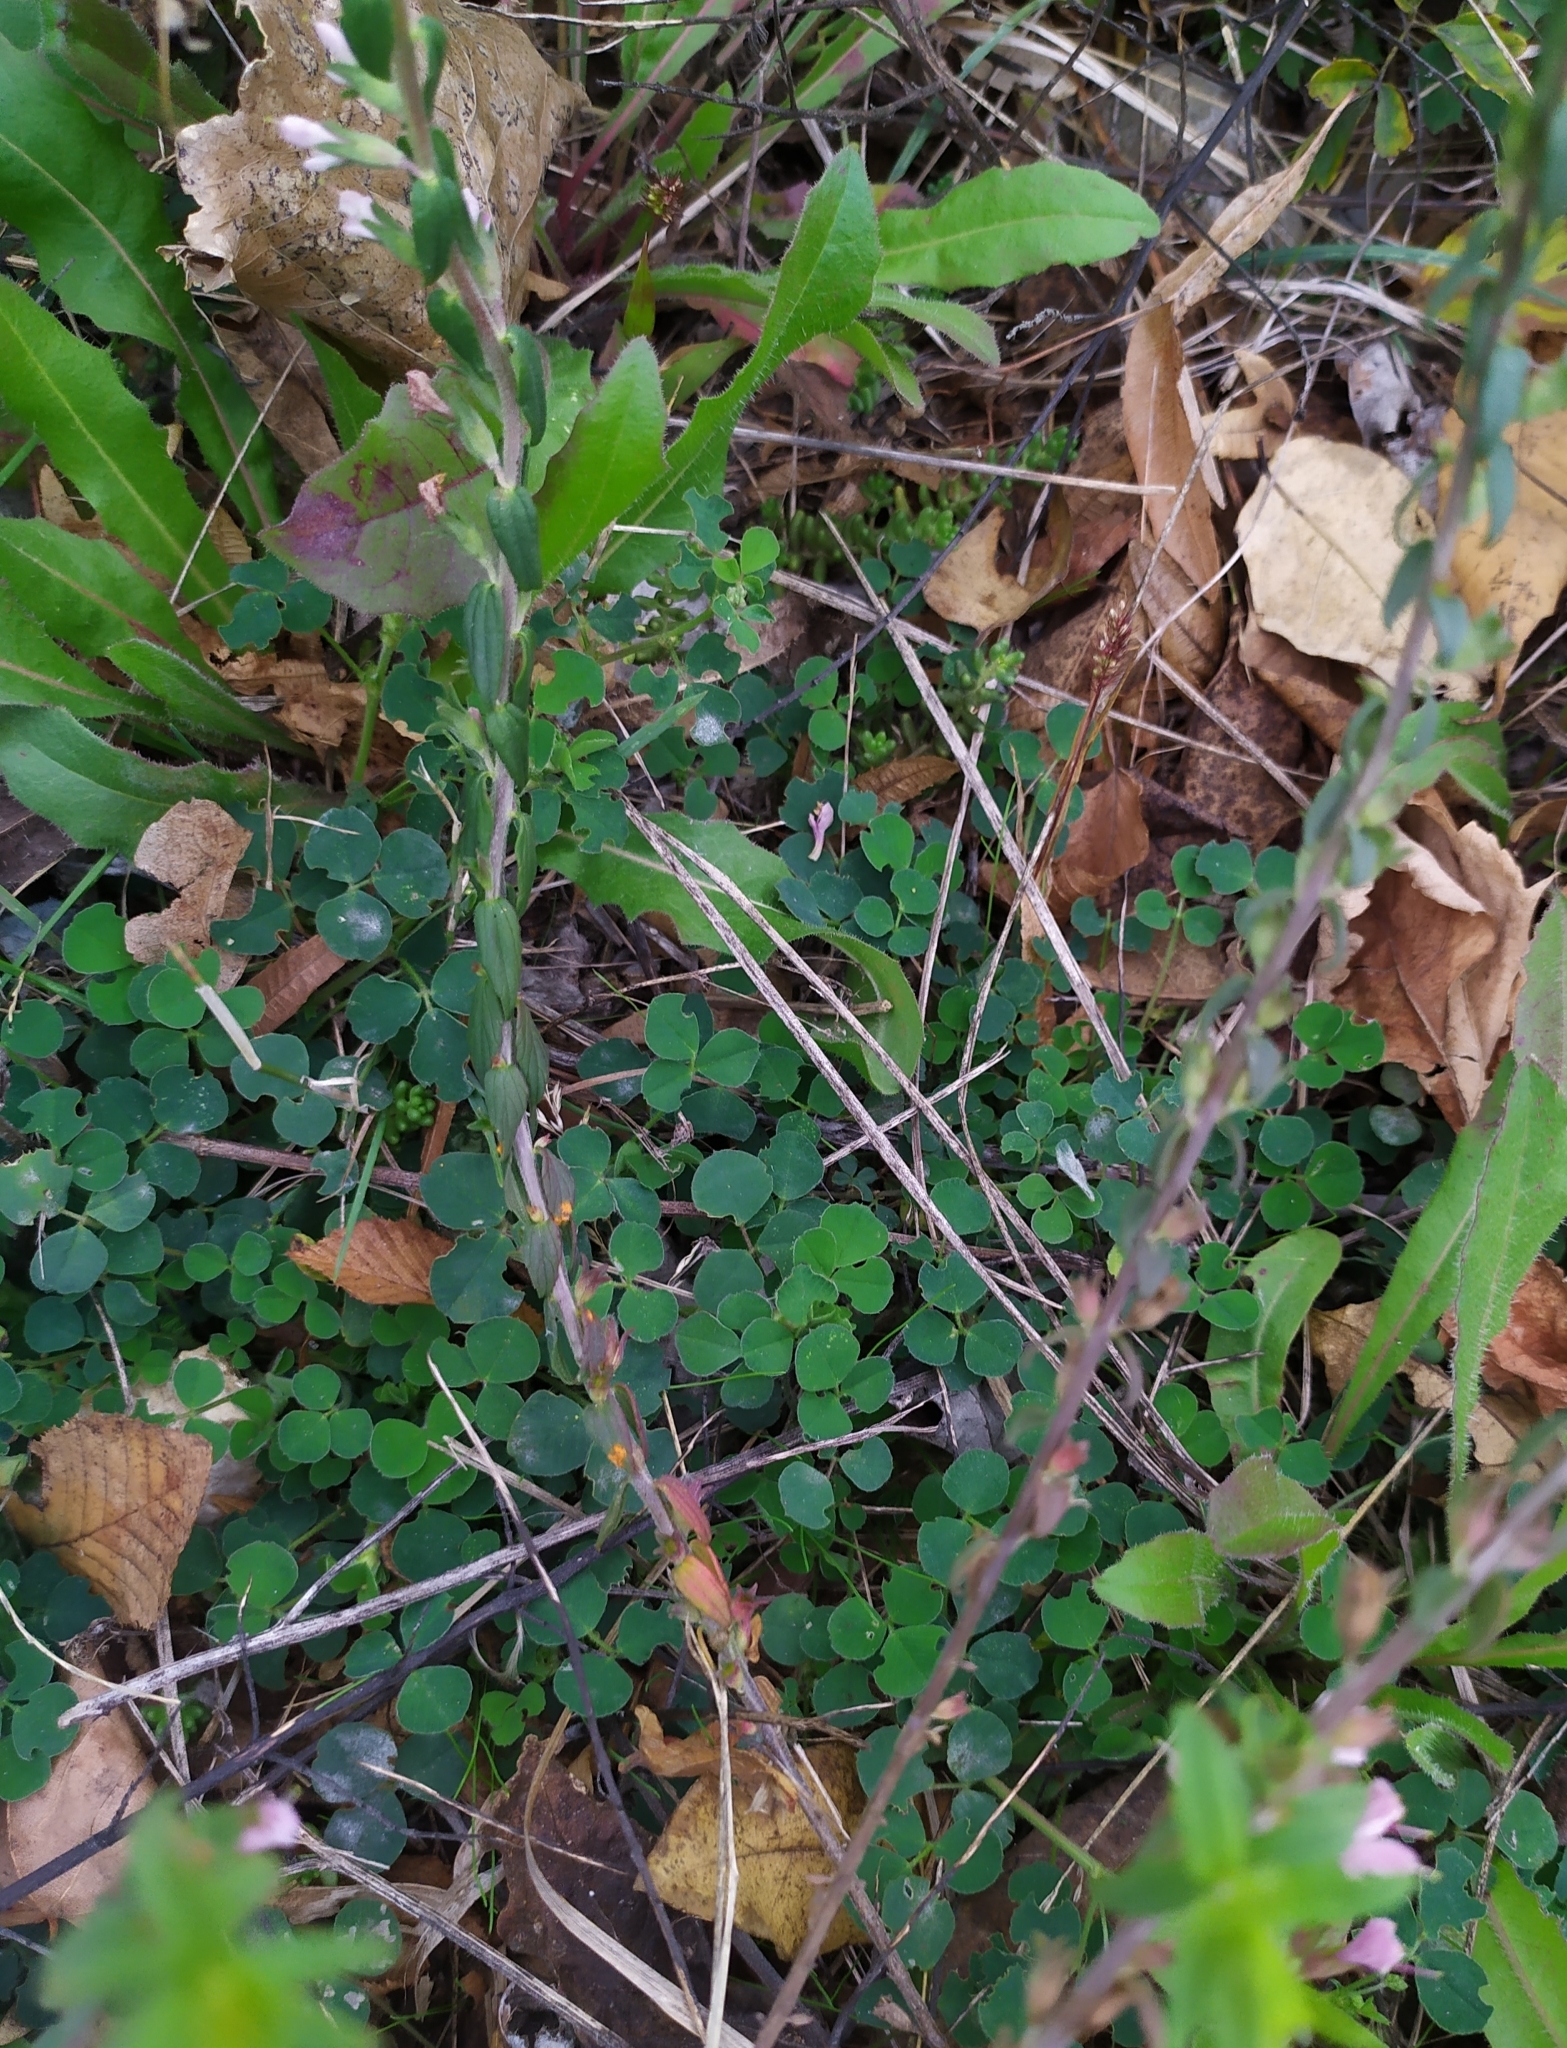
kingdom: Fungi
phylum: Basidiomycota
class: Pucciniomycetes
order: Pucciniales
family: Coleosporiaceae
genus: Coleosporium
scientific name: Coleosporium euphrasiae
